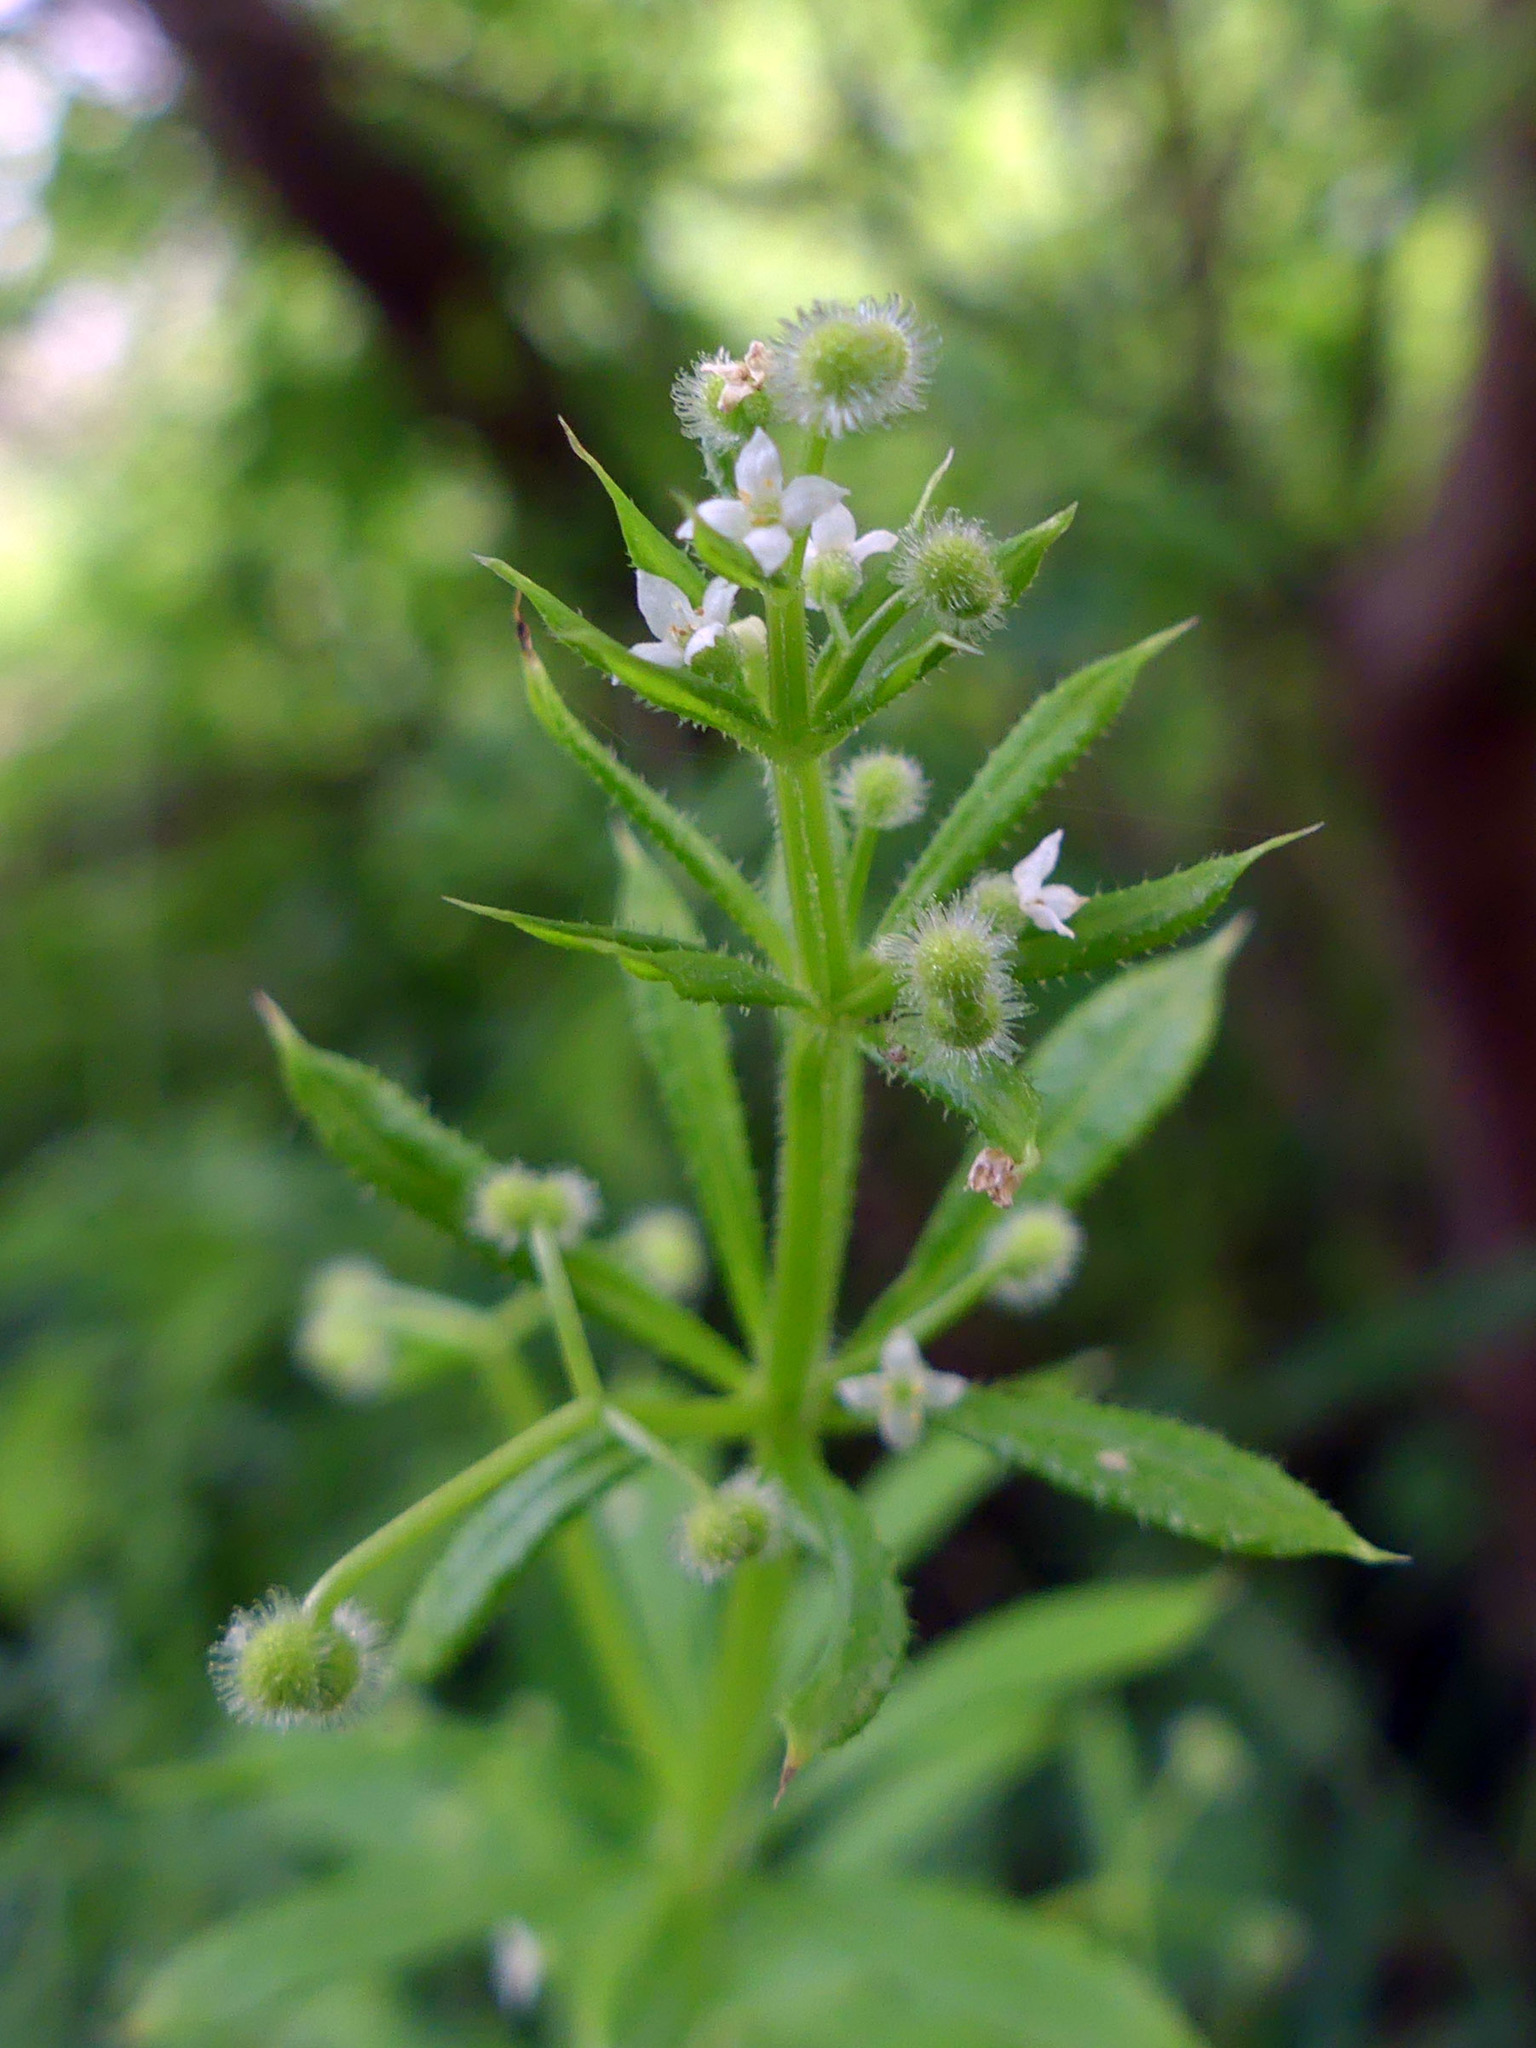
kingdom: Plantae
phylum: Tracheophyta
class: Magnoliopsida
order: Gentianales
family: Rubiaceae
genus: Galium
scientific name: Galium aparine
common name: Cleavers
